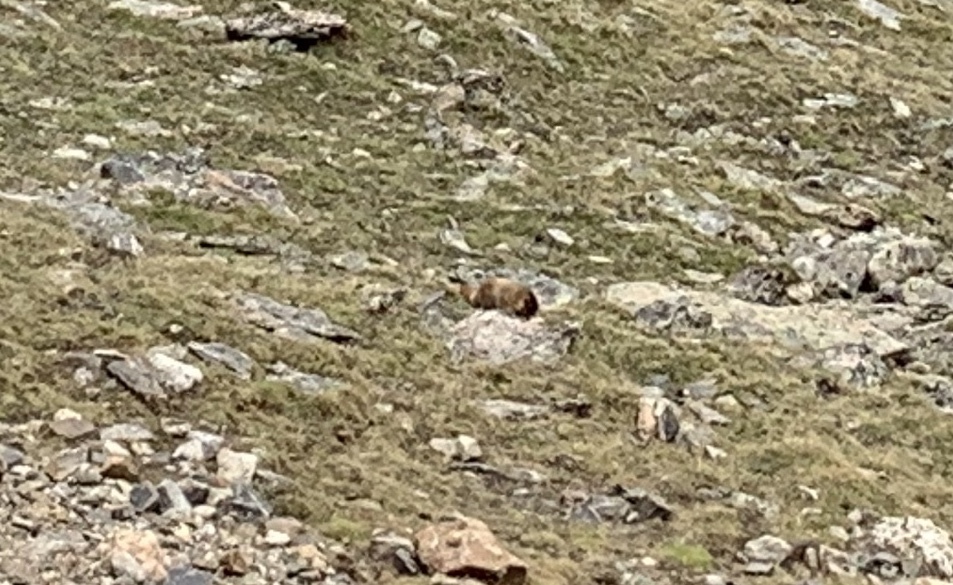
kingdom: Animalia
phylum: Chordata
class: Mammalia
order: Rodentia
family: Sciuridae
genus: Marmota
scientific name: Marmota flaviventris
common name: Yellow-bellied marmot
